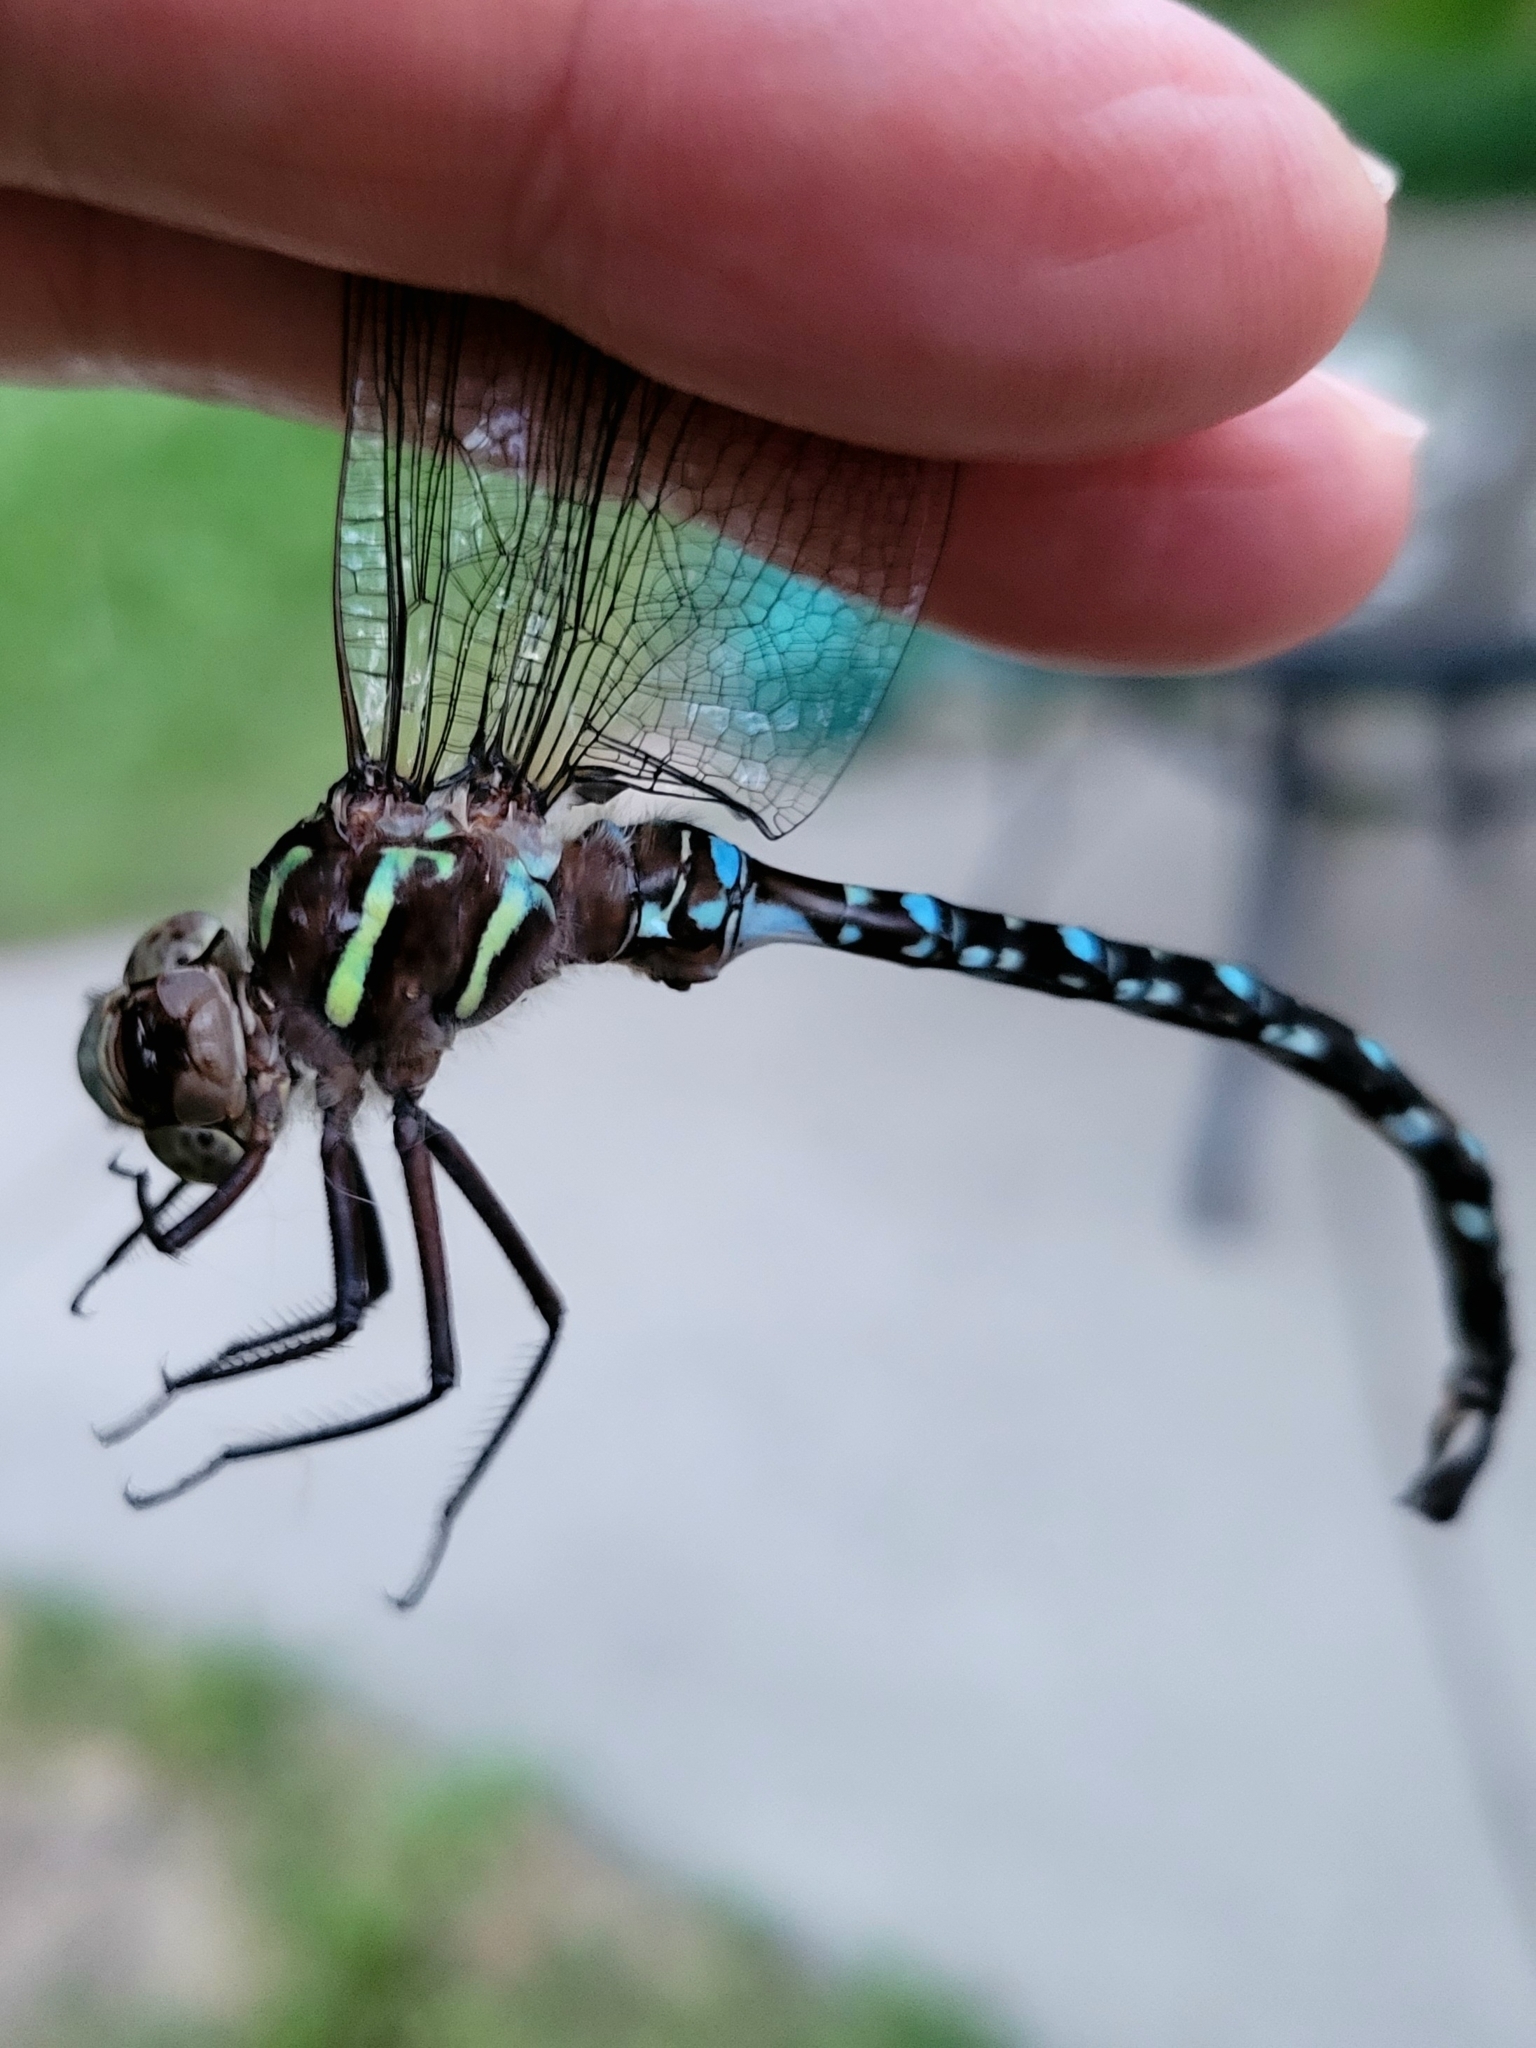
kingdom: Animalia
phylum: Arthropoda
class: Insecta
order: Odonata
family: Aeshnidae
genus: Aeshna
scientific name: Aeshna umbrosa
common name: Shadow darner
